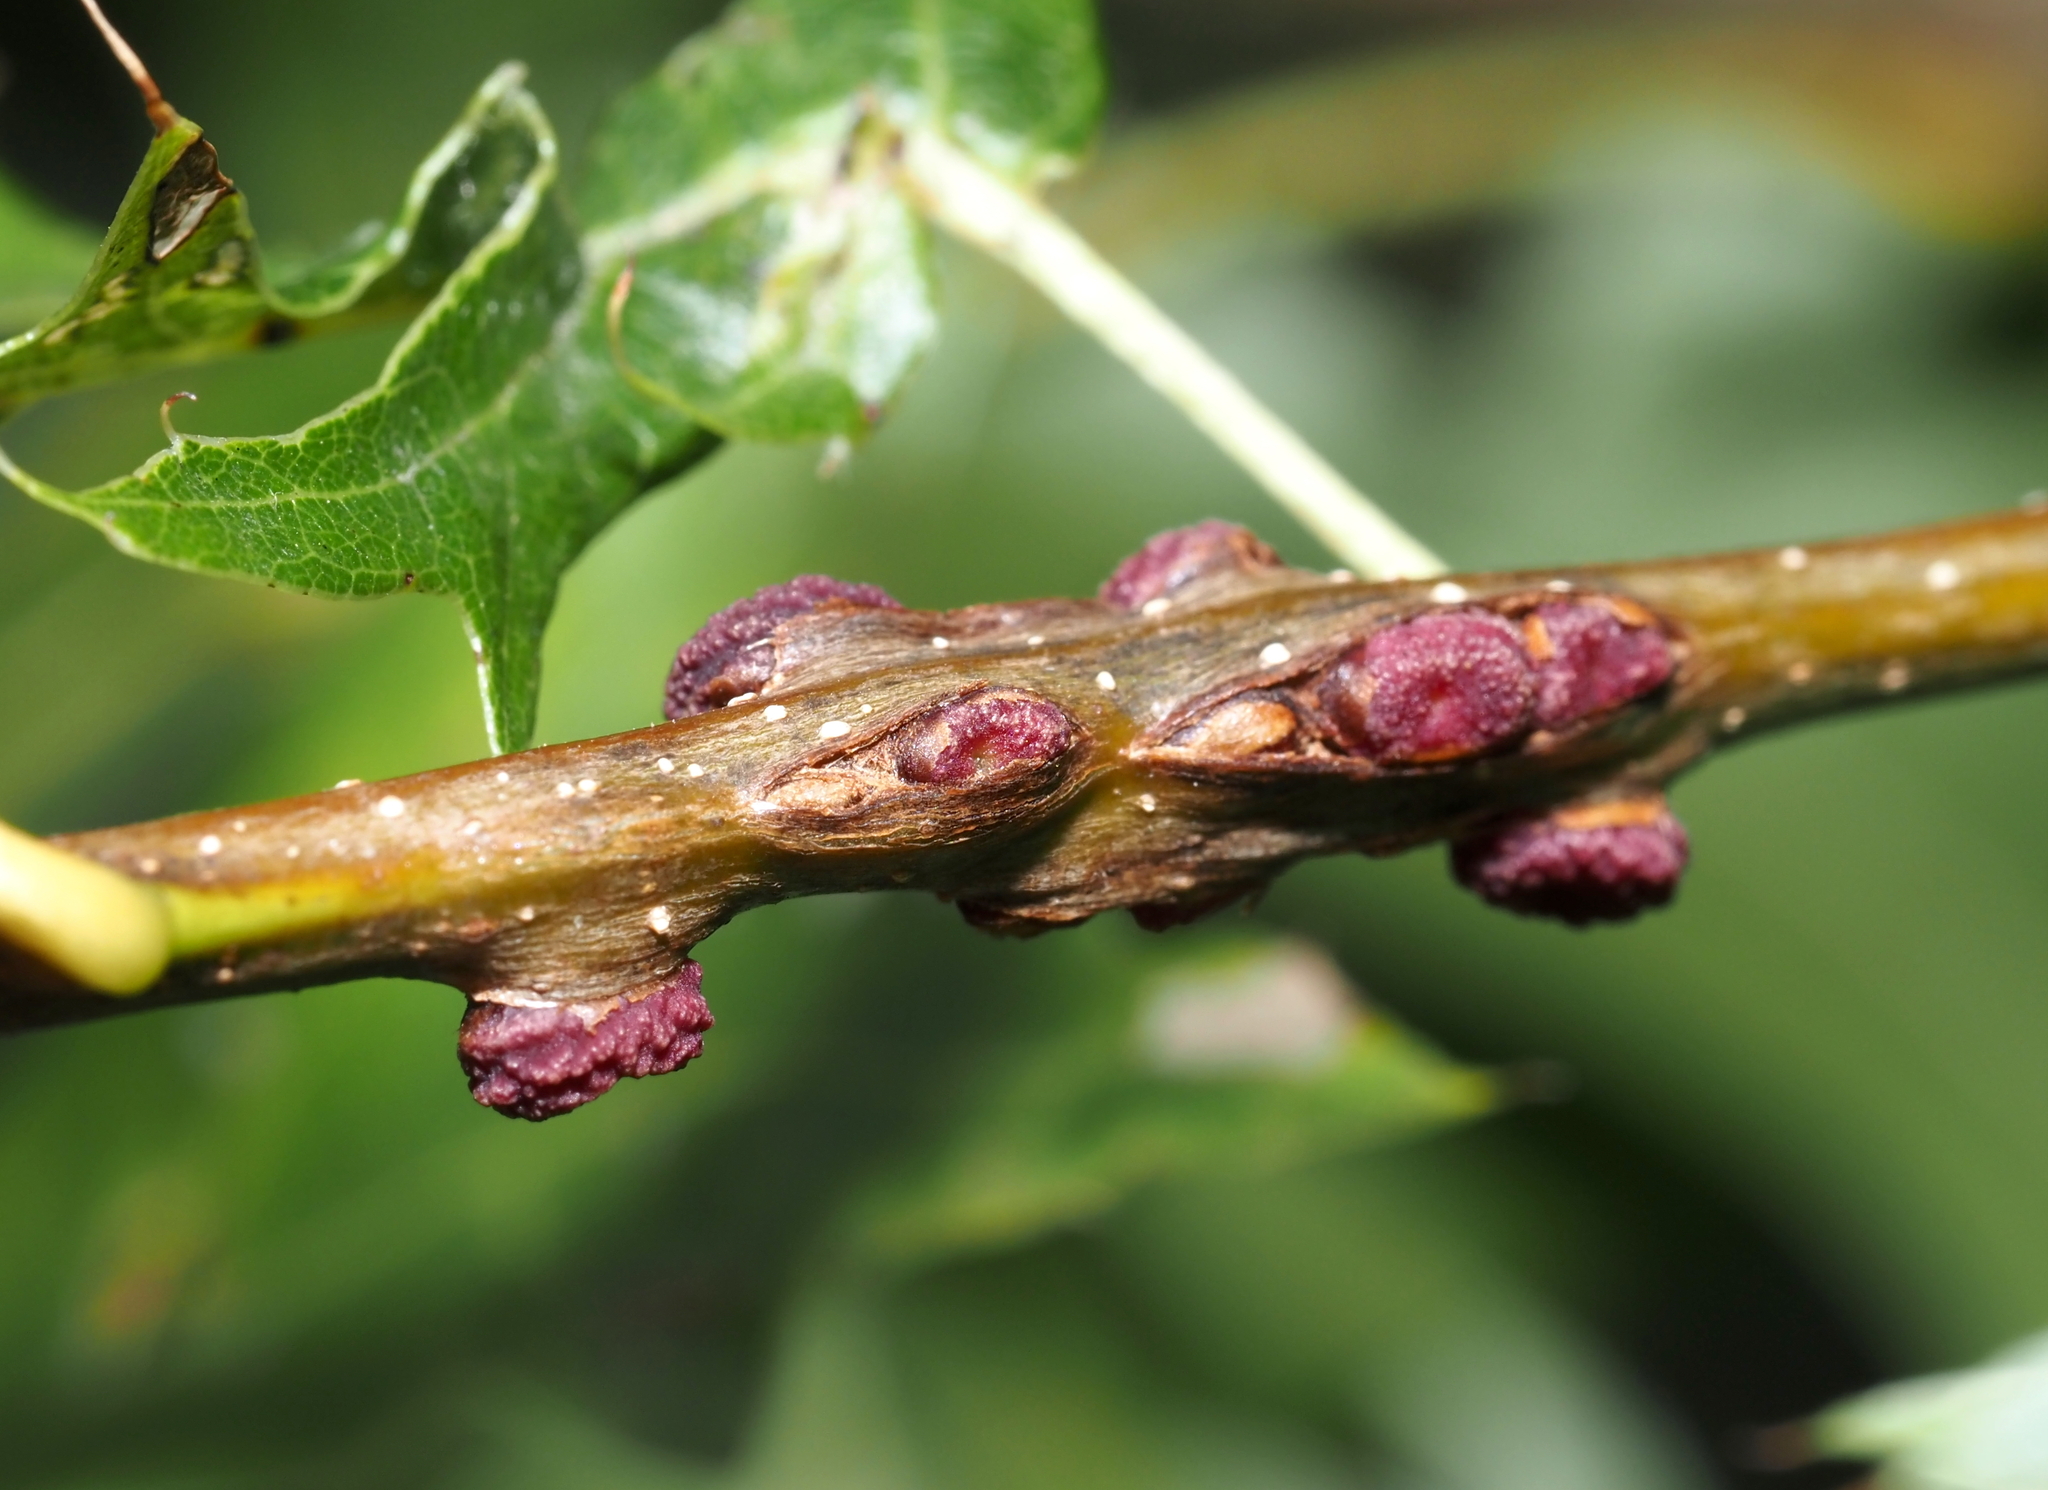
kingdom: Animalia
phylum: Arthropoda
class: Insecta
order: Hymenoptera
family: Cynipidae
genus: Kokkocynips
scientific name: Kokkocynips difficilis
